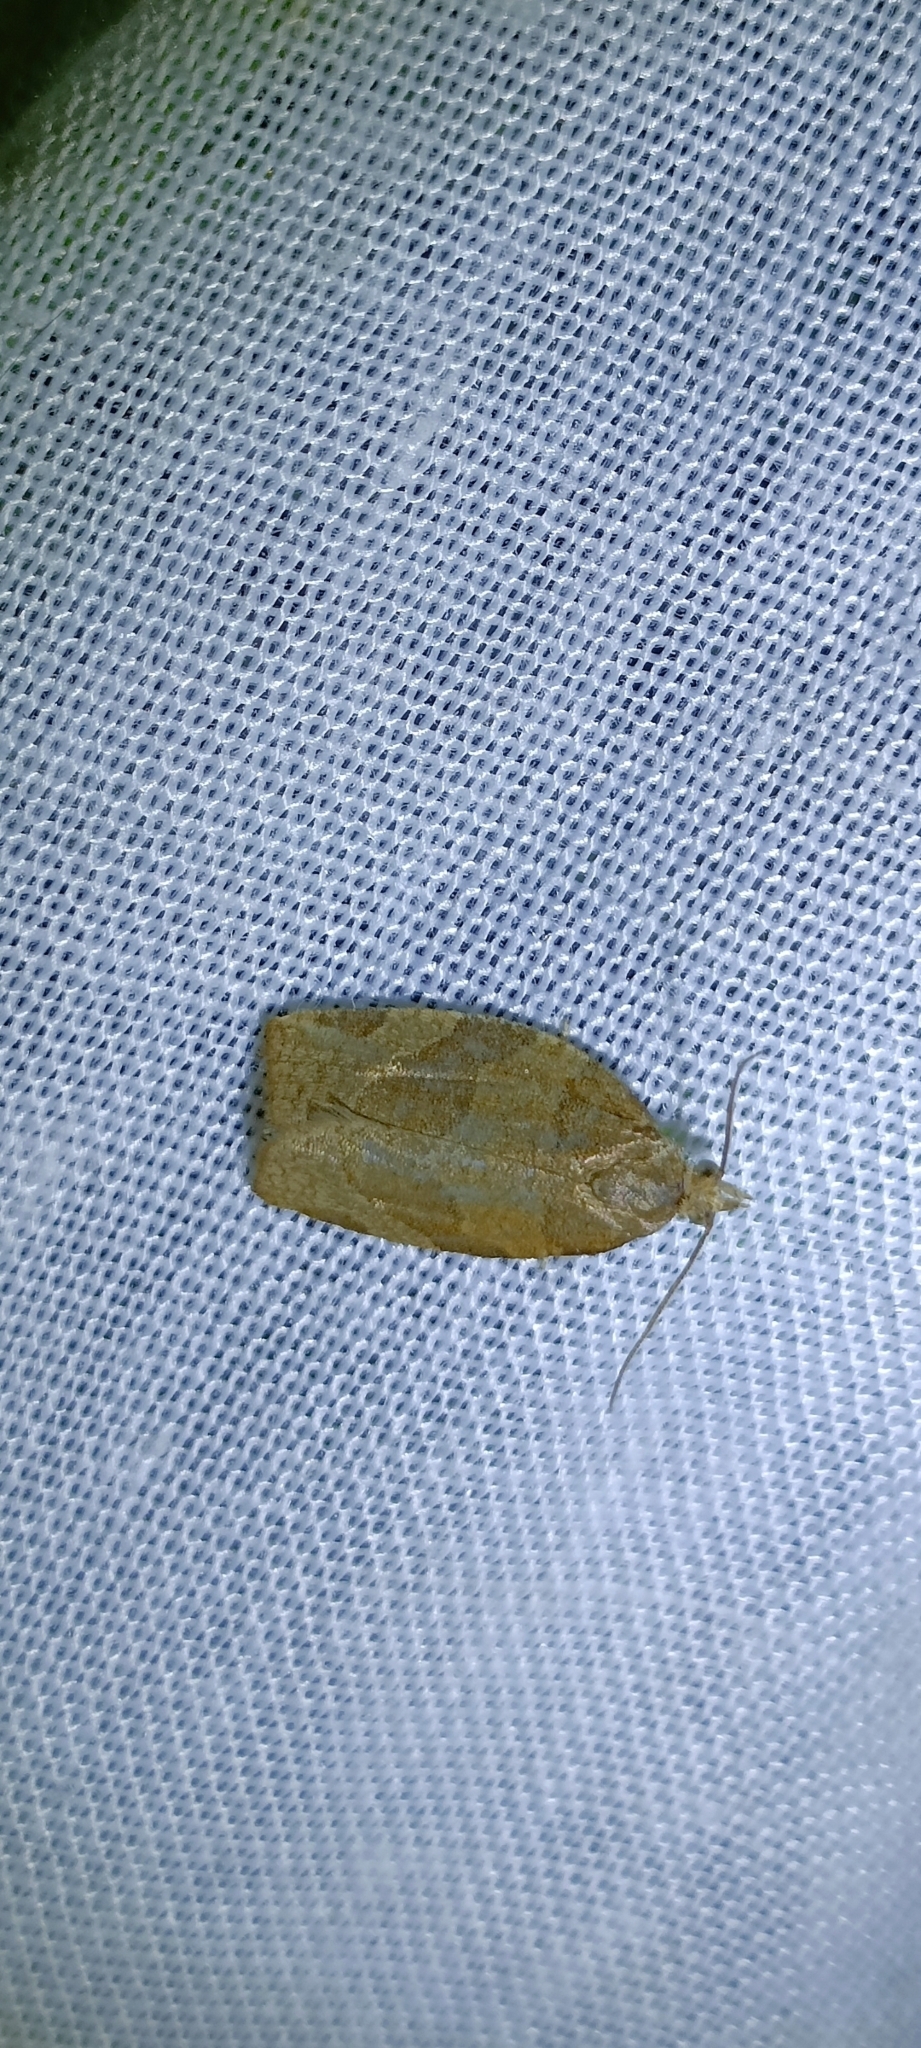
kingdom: Animalia
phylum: Arthropoda
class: Insecta
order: Lepidoptera
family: Tortricidae
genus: Pandemis
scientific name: Pandemis cerasana
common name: Barred fruit-tree tortrix
